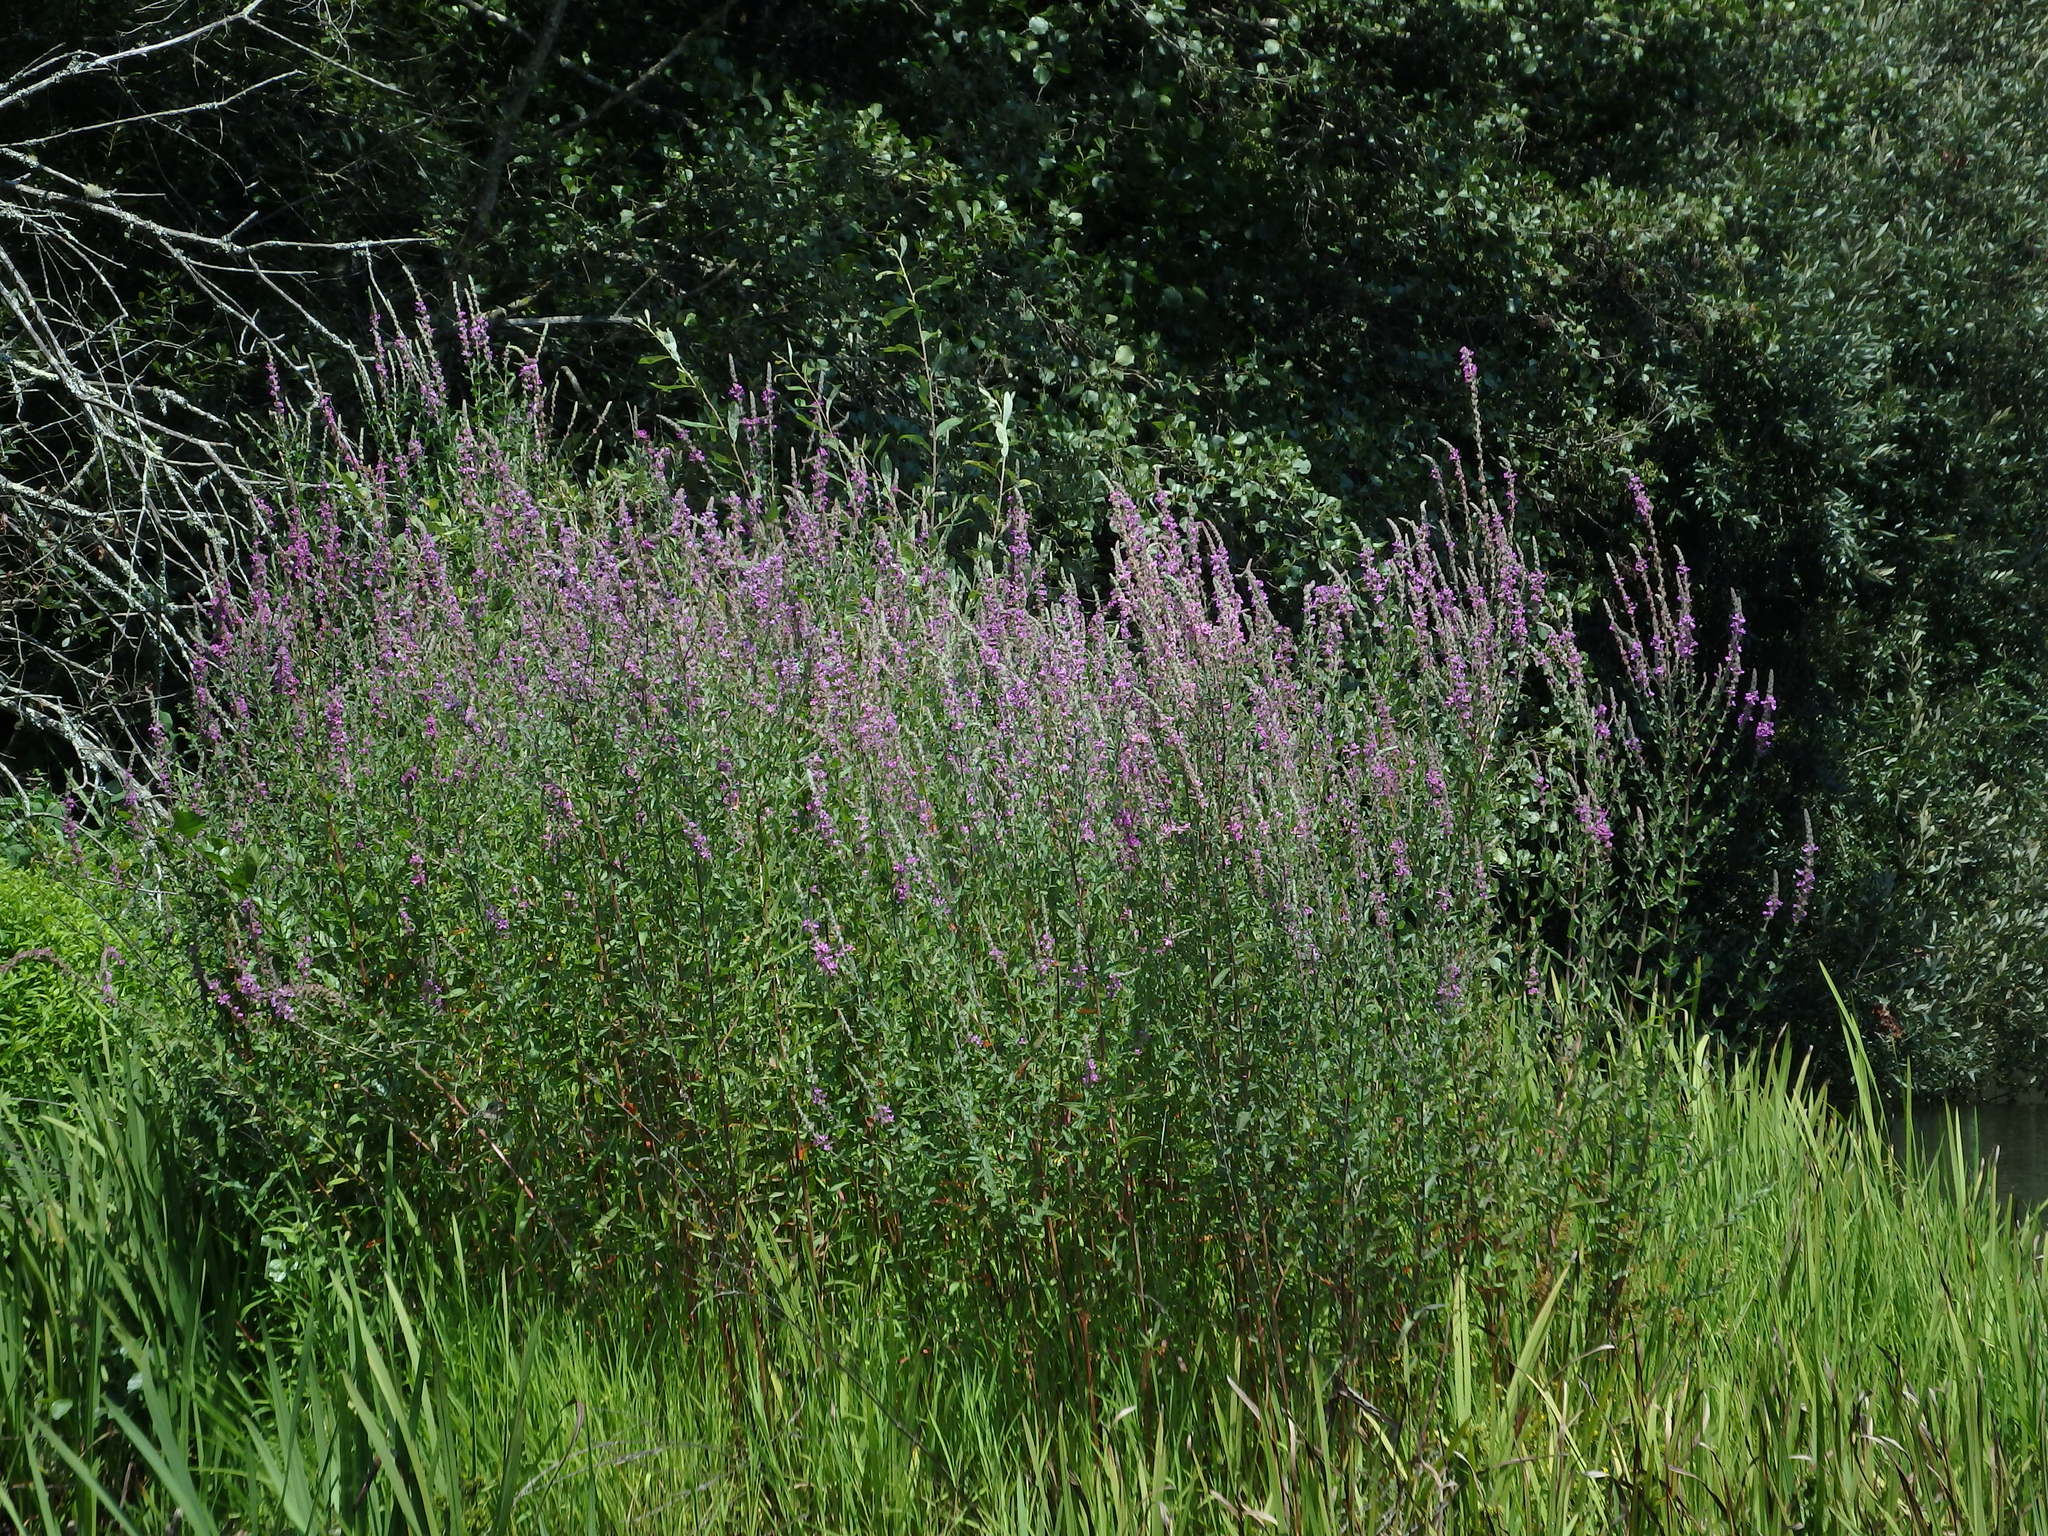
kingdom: Plantae
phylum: Tracheophyta
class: Magnoliopsida
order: Myrtales
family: Lythraceae
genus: Lythrum
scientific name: Lythrum salicaria
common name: Purple loosestrife
